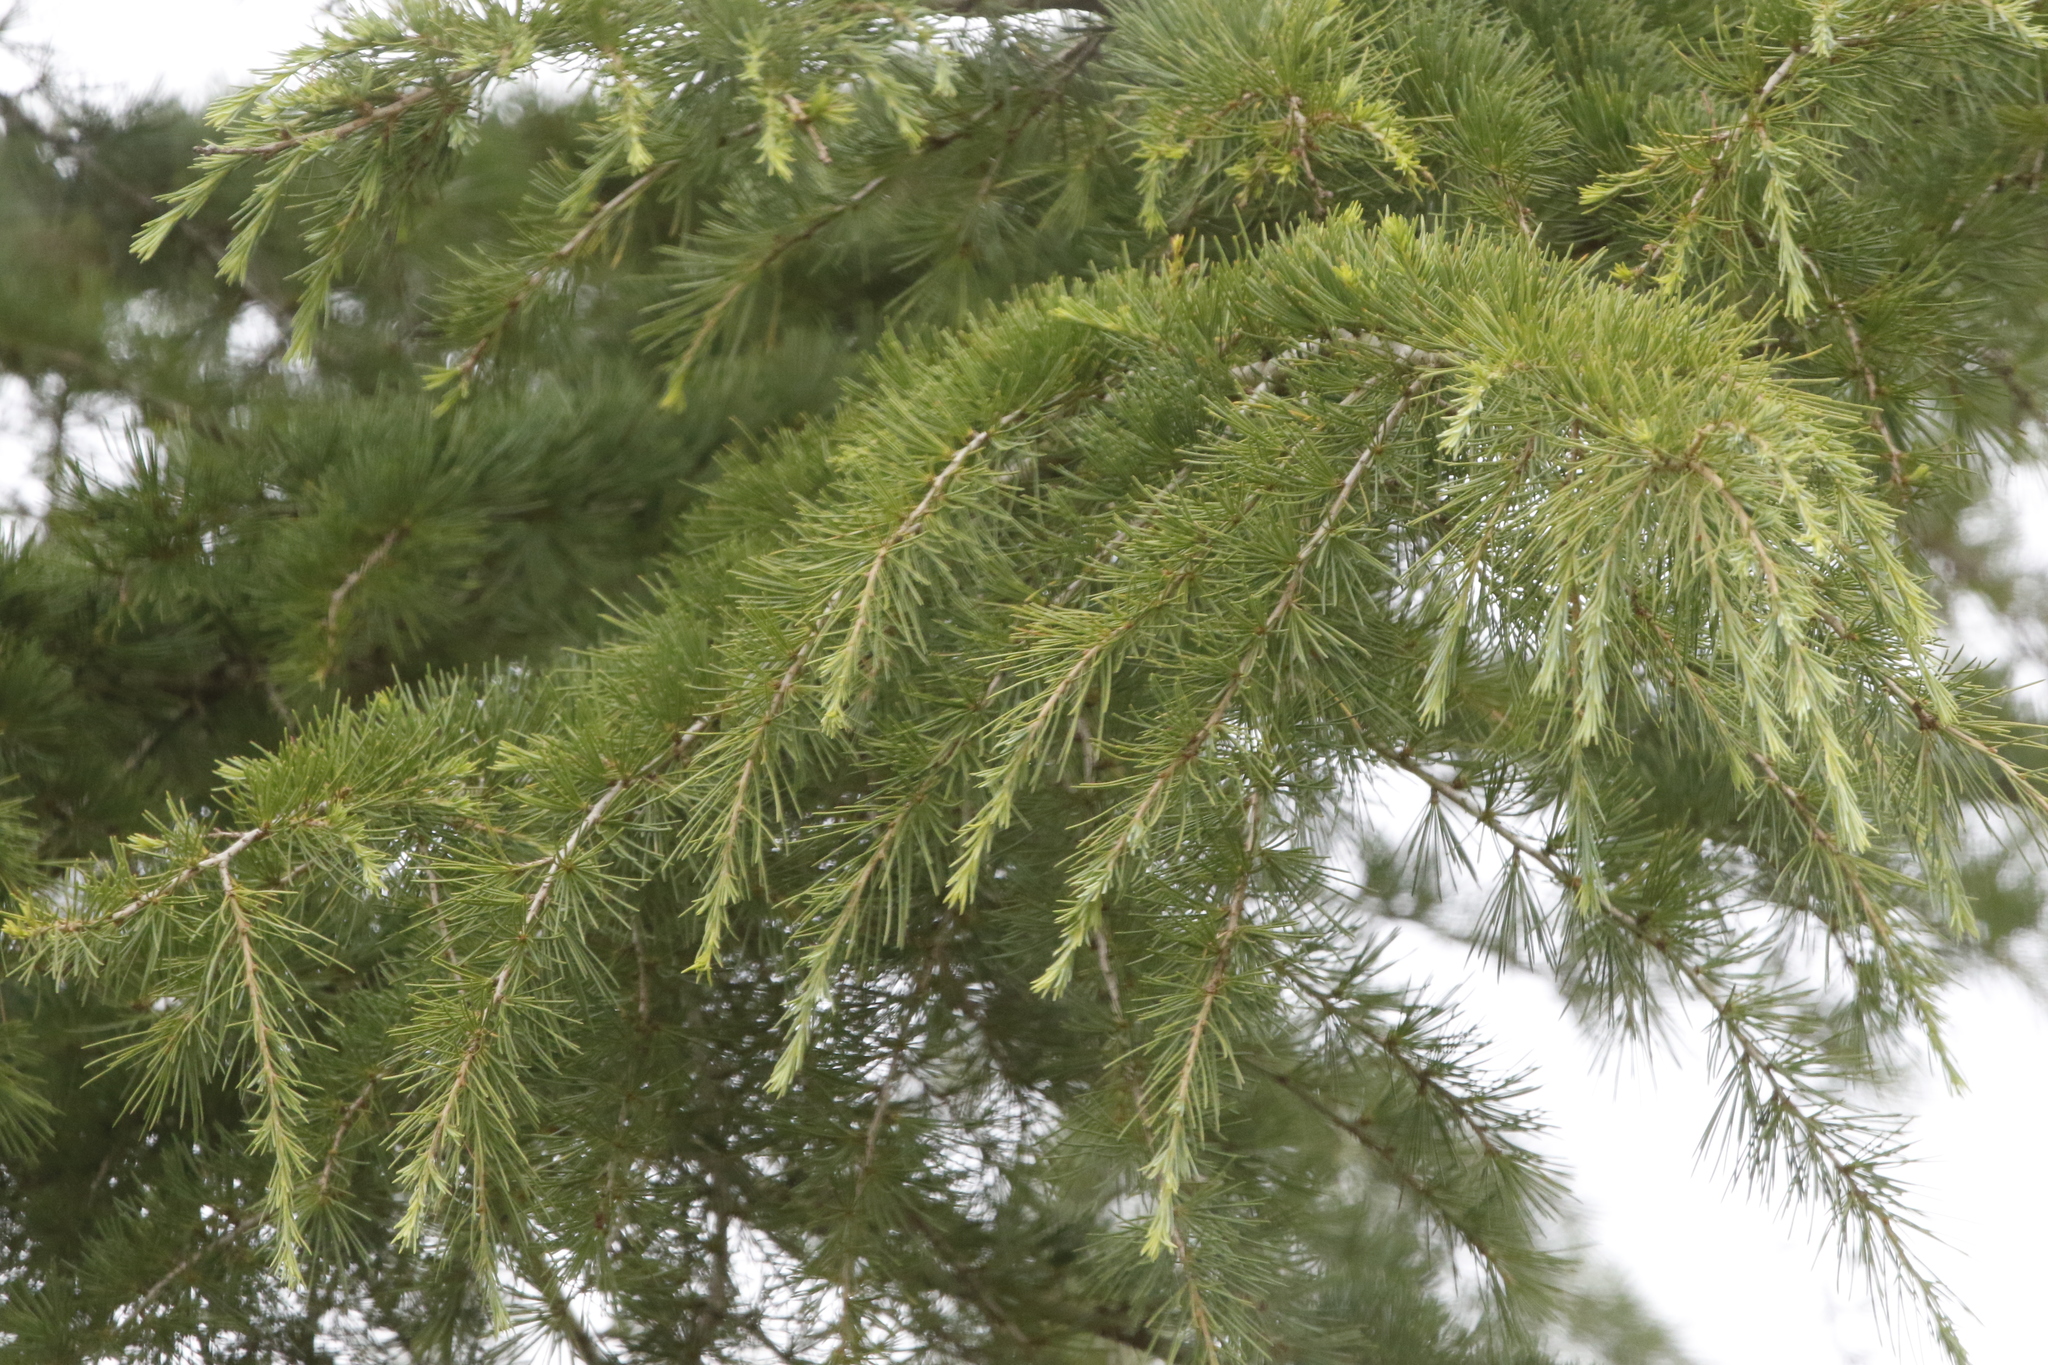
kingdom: Plantae
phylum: Tracheophyta
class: Pinopsida
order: Pinales
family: Pinaceae
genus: Cedrus
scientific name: Cedrus deodara
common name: Deodar
